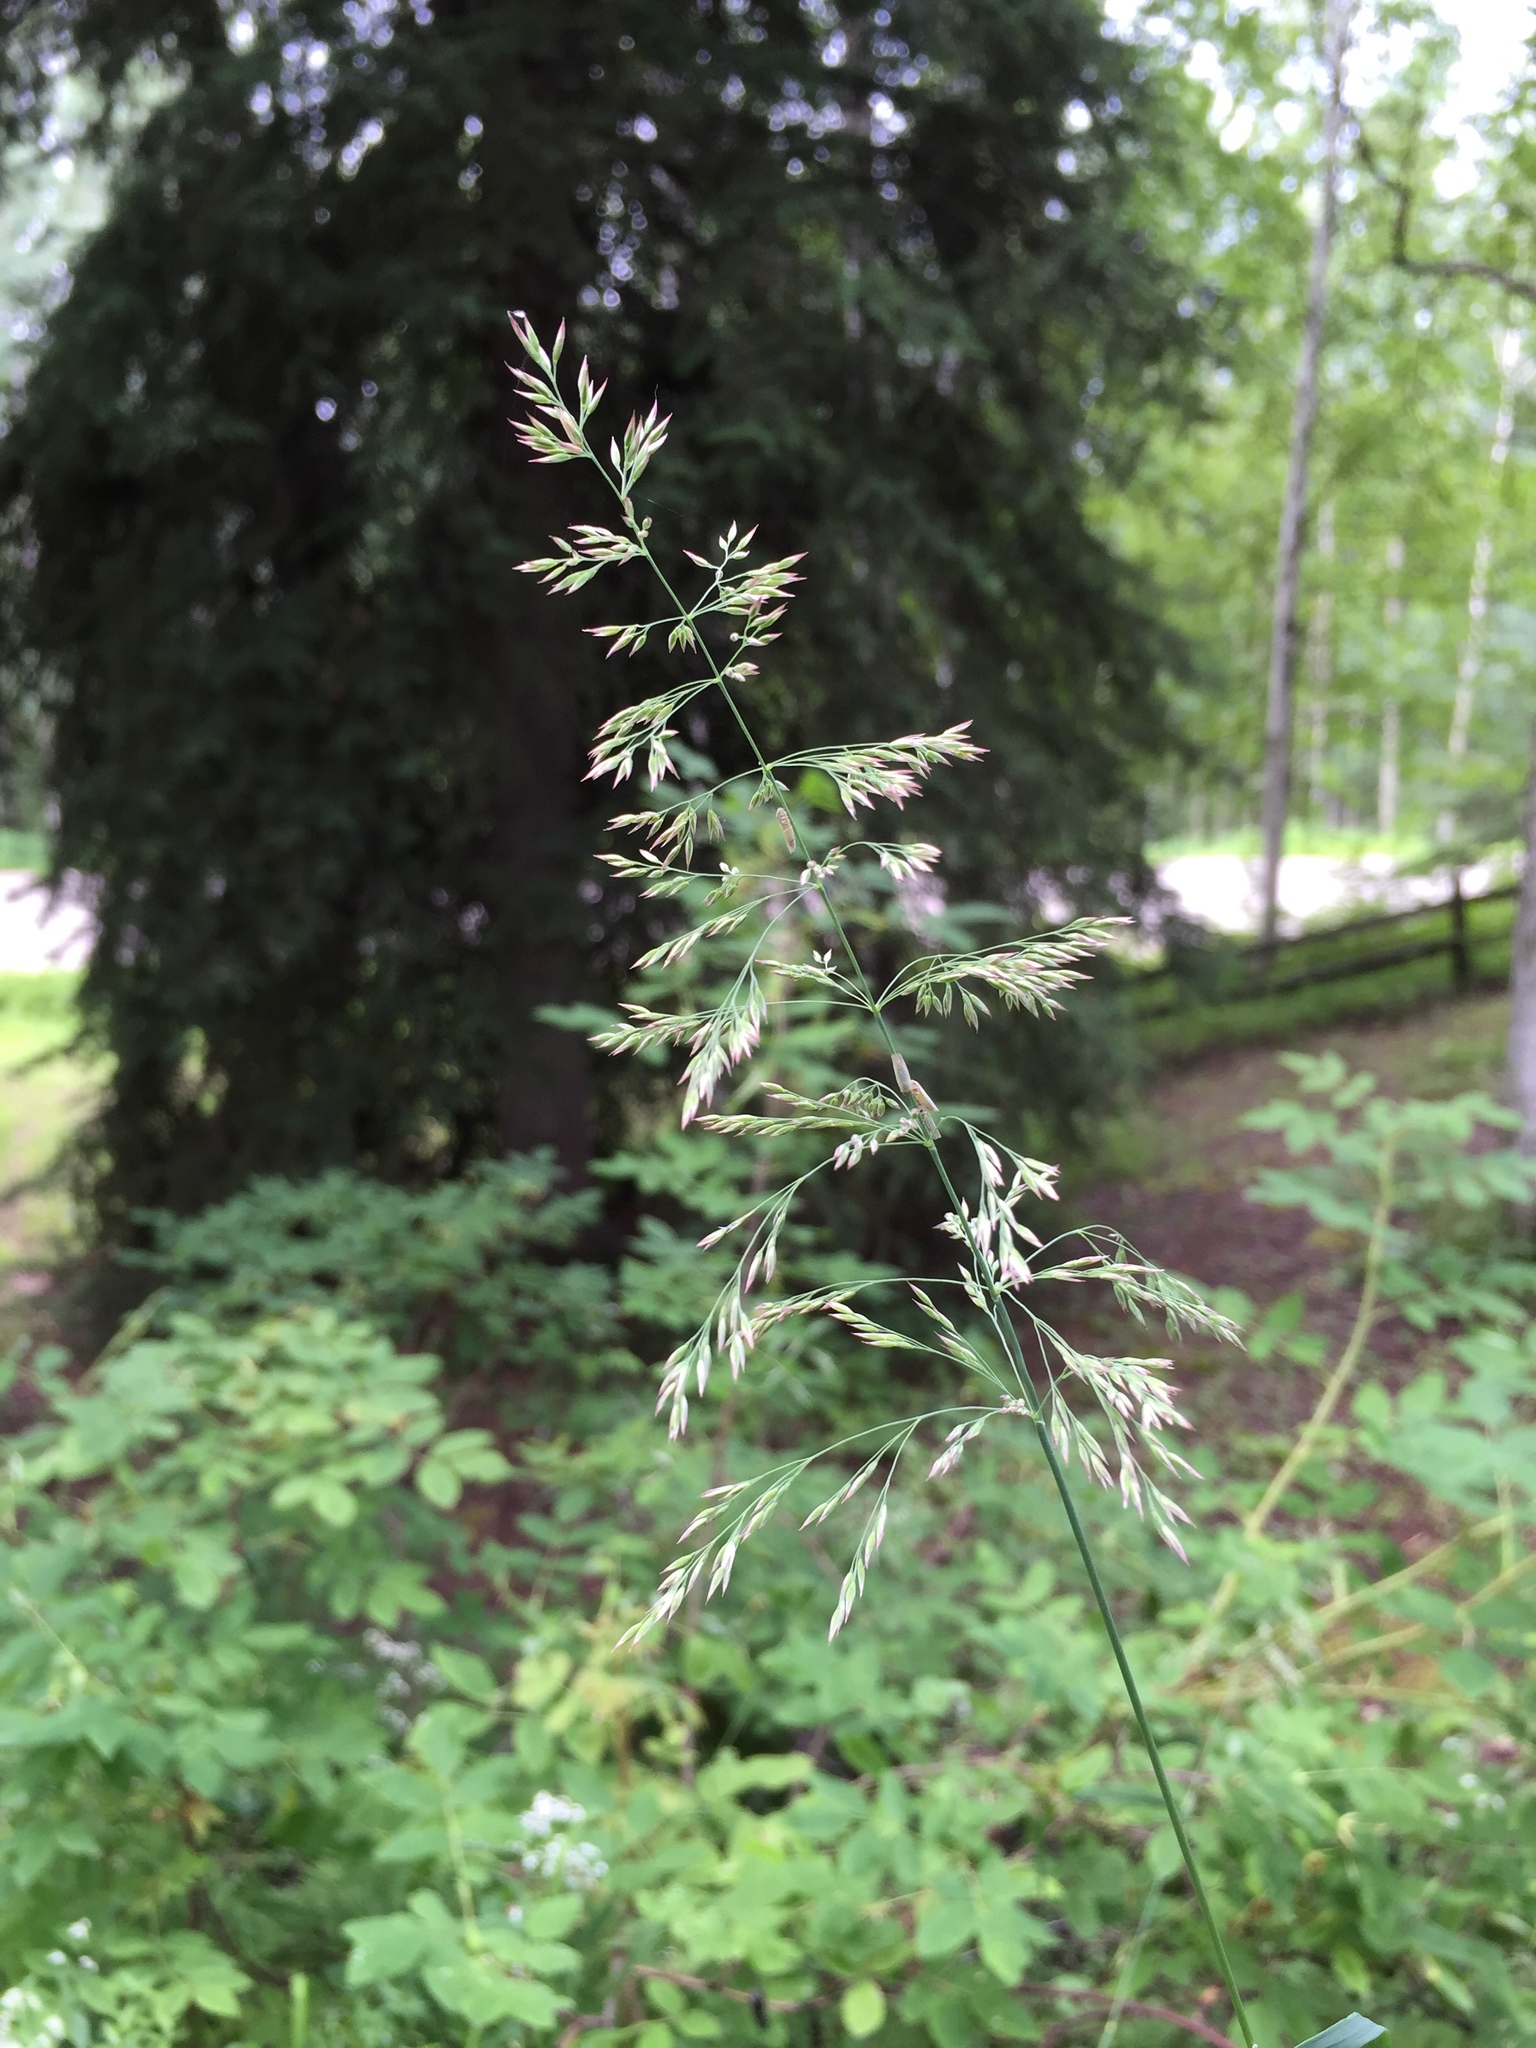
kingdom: Plantae
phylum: Tracheophyta
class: Liliopsida
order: Poales
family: Poaceae
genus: Calamagrostis
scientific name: Calamagrostis canadensis
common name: Canada bluejoint
